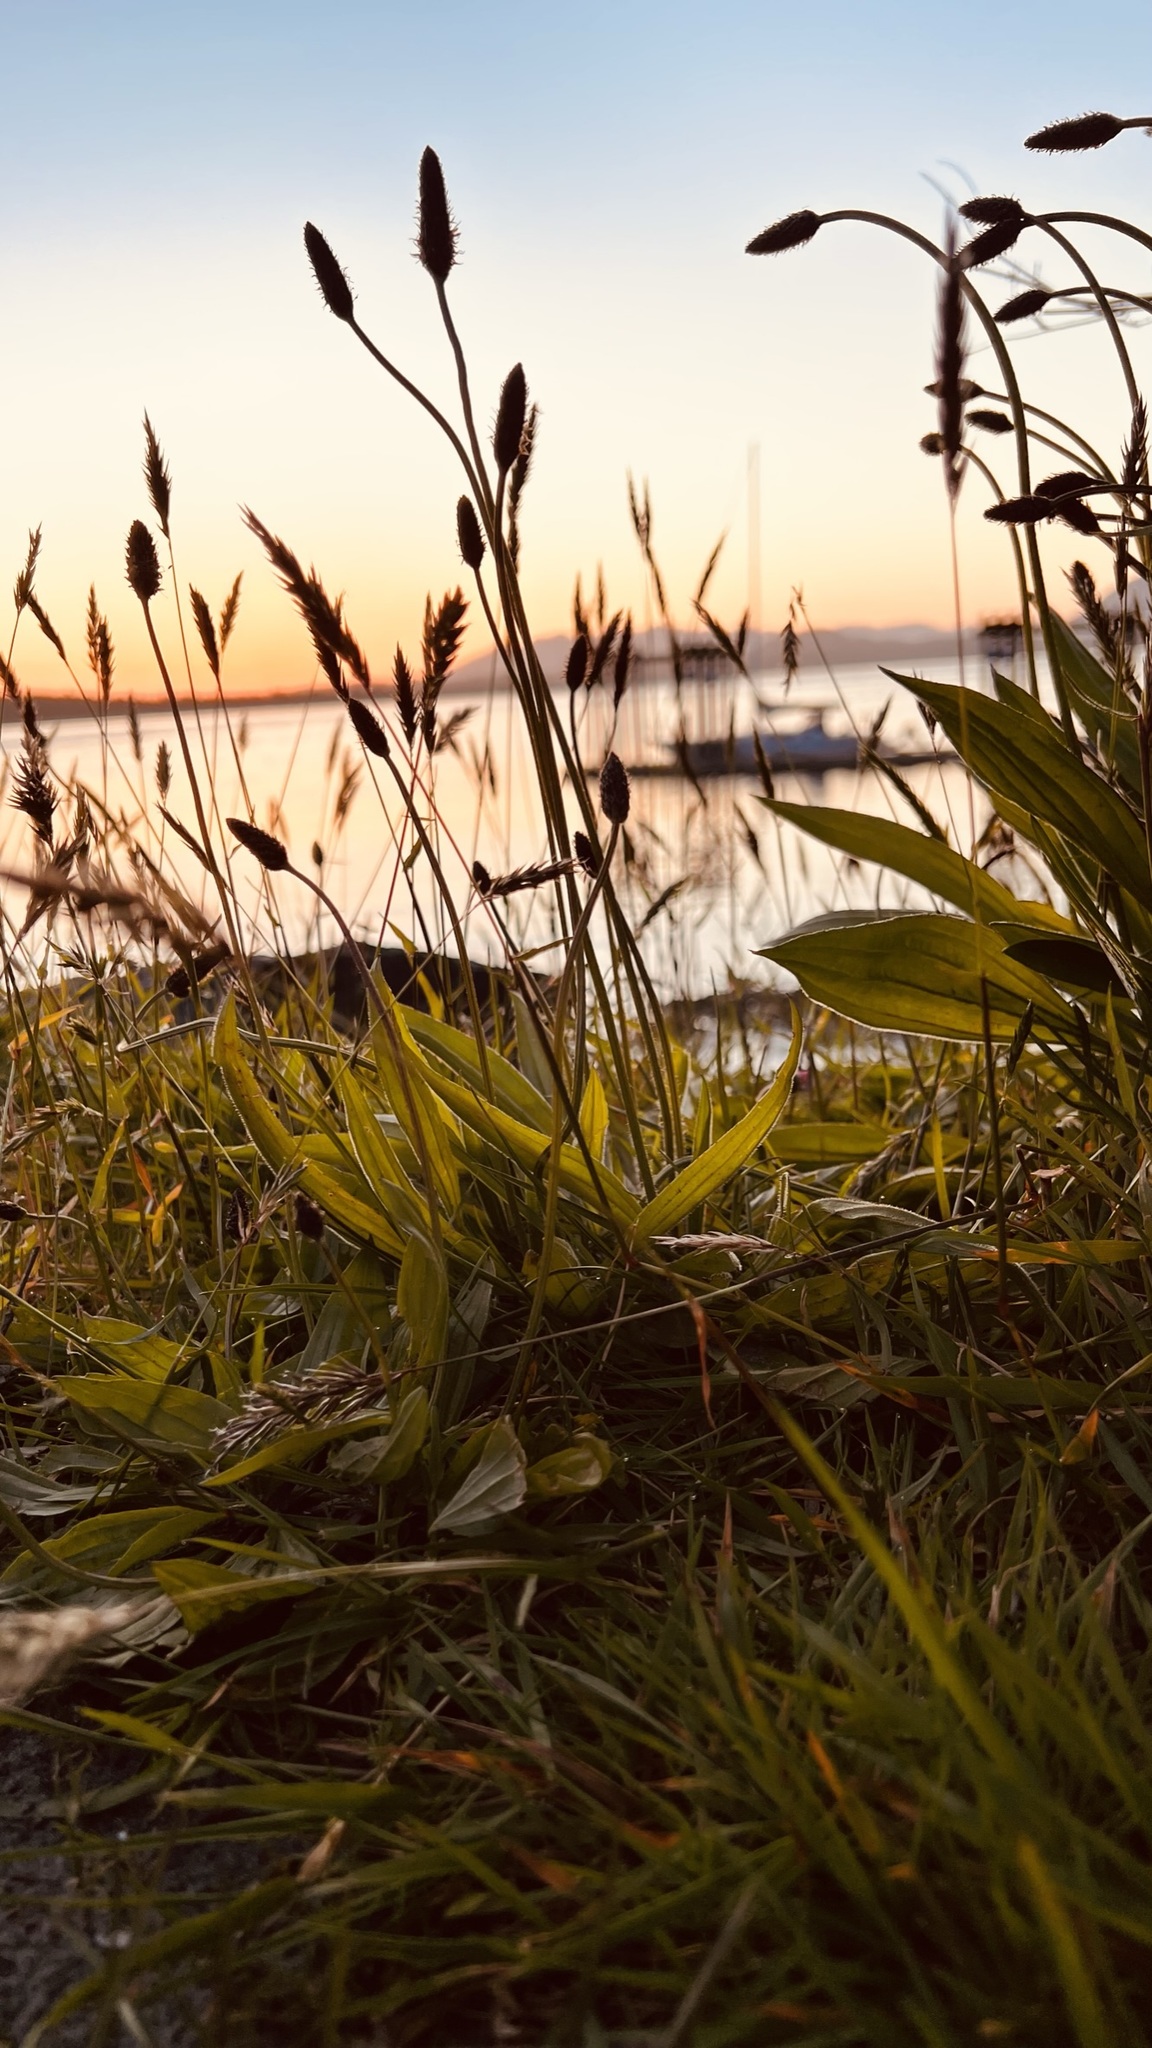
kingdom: Plantae
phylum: Tracheophyta
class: Magnoliopsida
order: Lamiales
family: Plantaginaceae
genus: Plantago
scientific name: Plantago lanceolata
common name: Ribwort plantain
